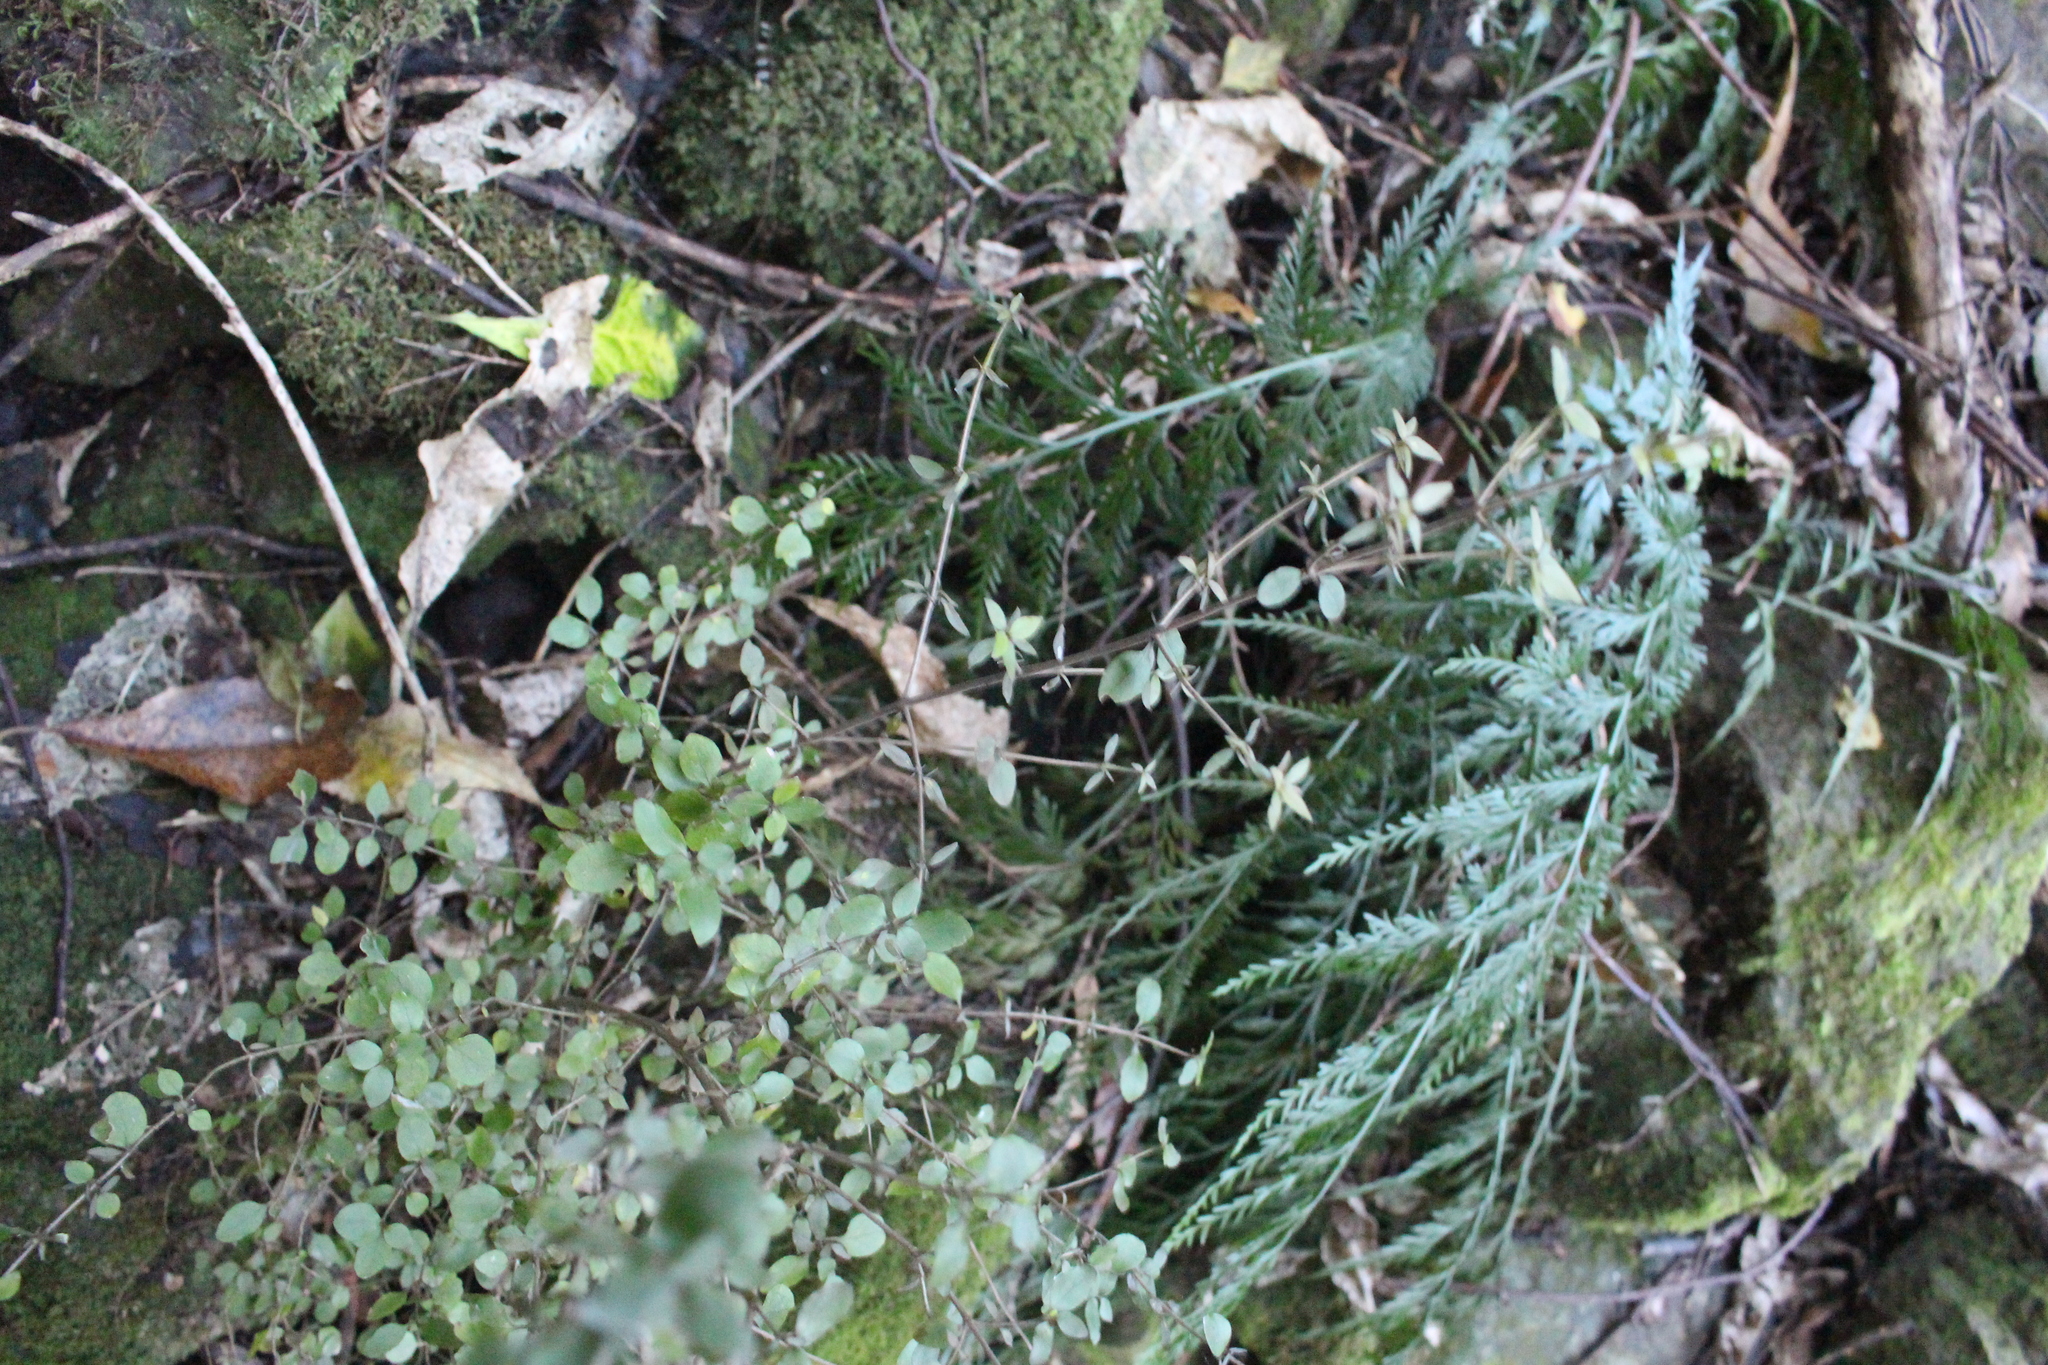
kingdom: Plantae
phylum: Tracheophyta
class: Magnoliopsida
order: Gentianales
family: Rubiaceae
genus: Coprosma
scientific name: Coprosma rhamnoides
